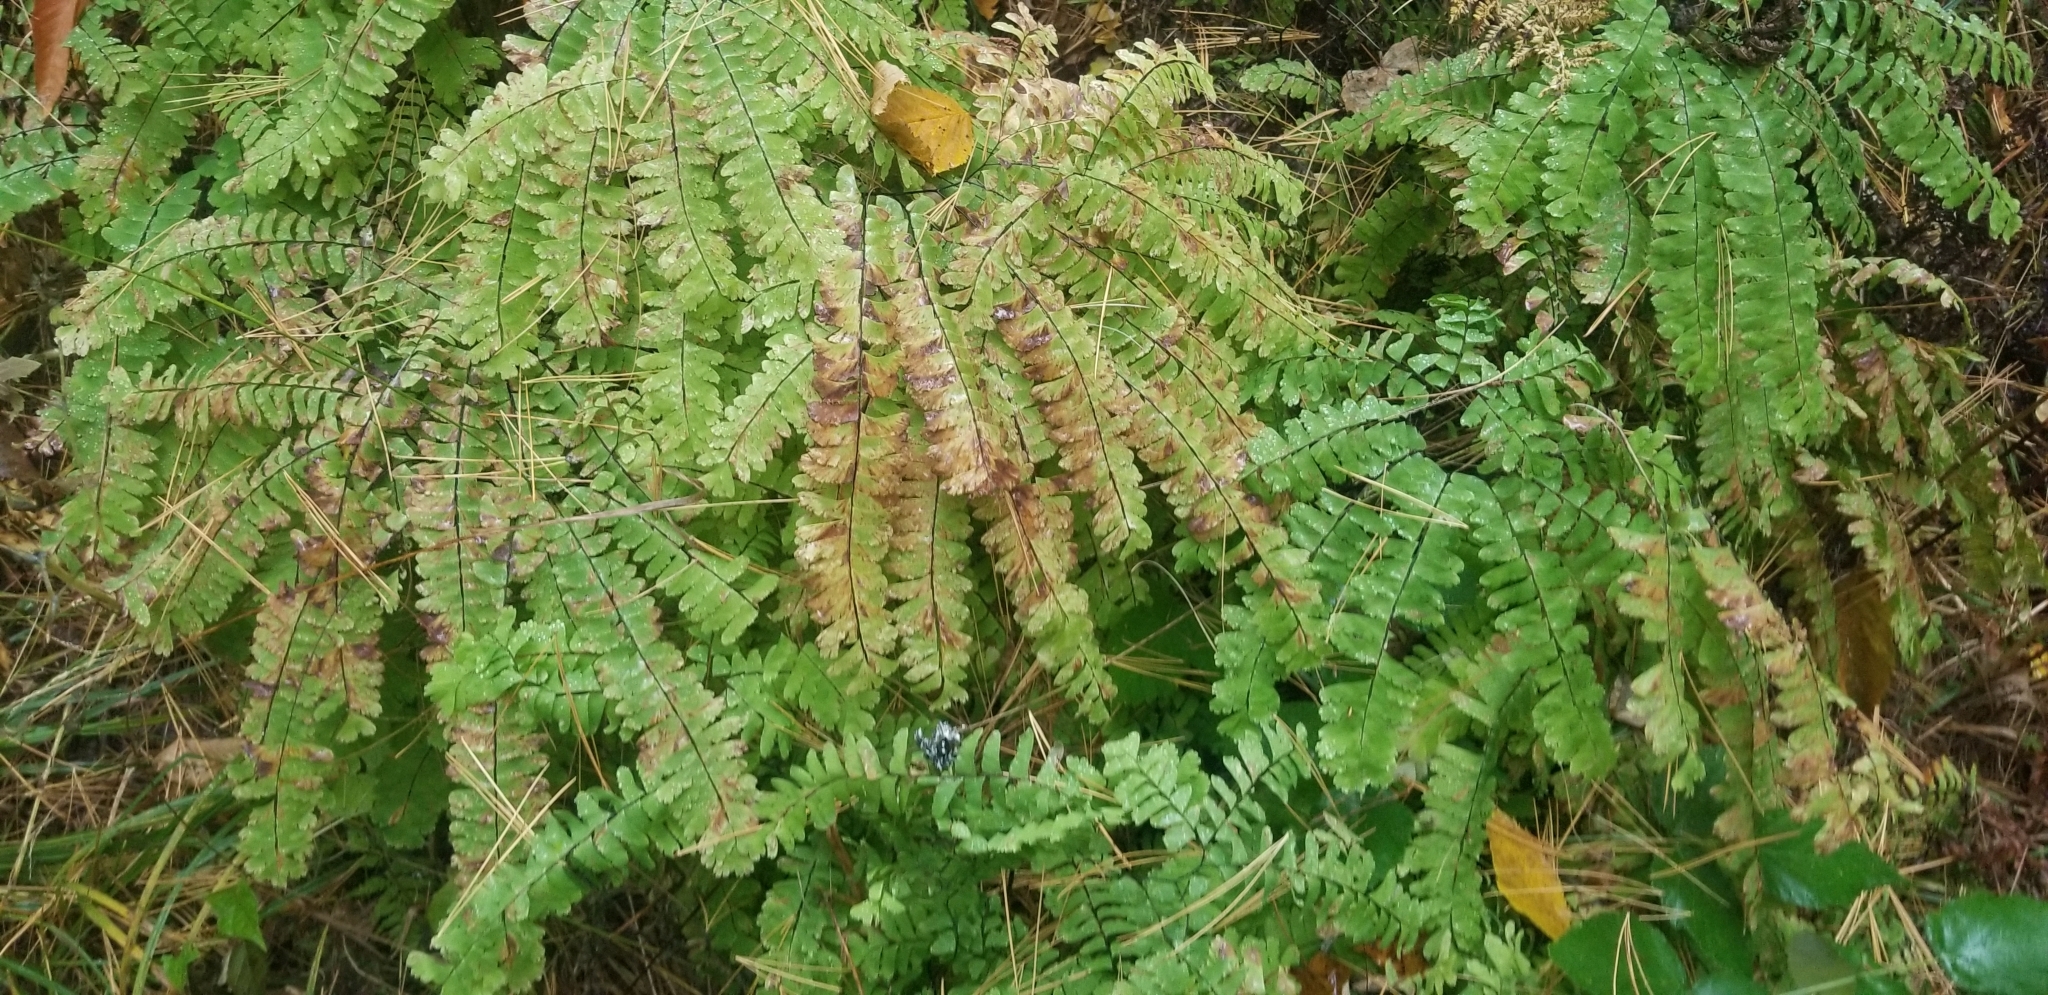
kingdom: Plantae
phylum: Tracheophyta
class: Polypodiopsida
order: Polypodiales
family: Pteridaceae
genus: Adiantum
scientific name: Adiantum pedatum
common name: Five-finger fern
